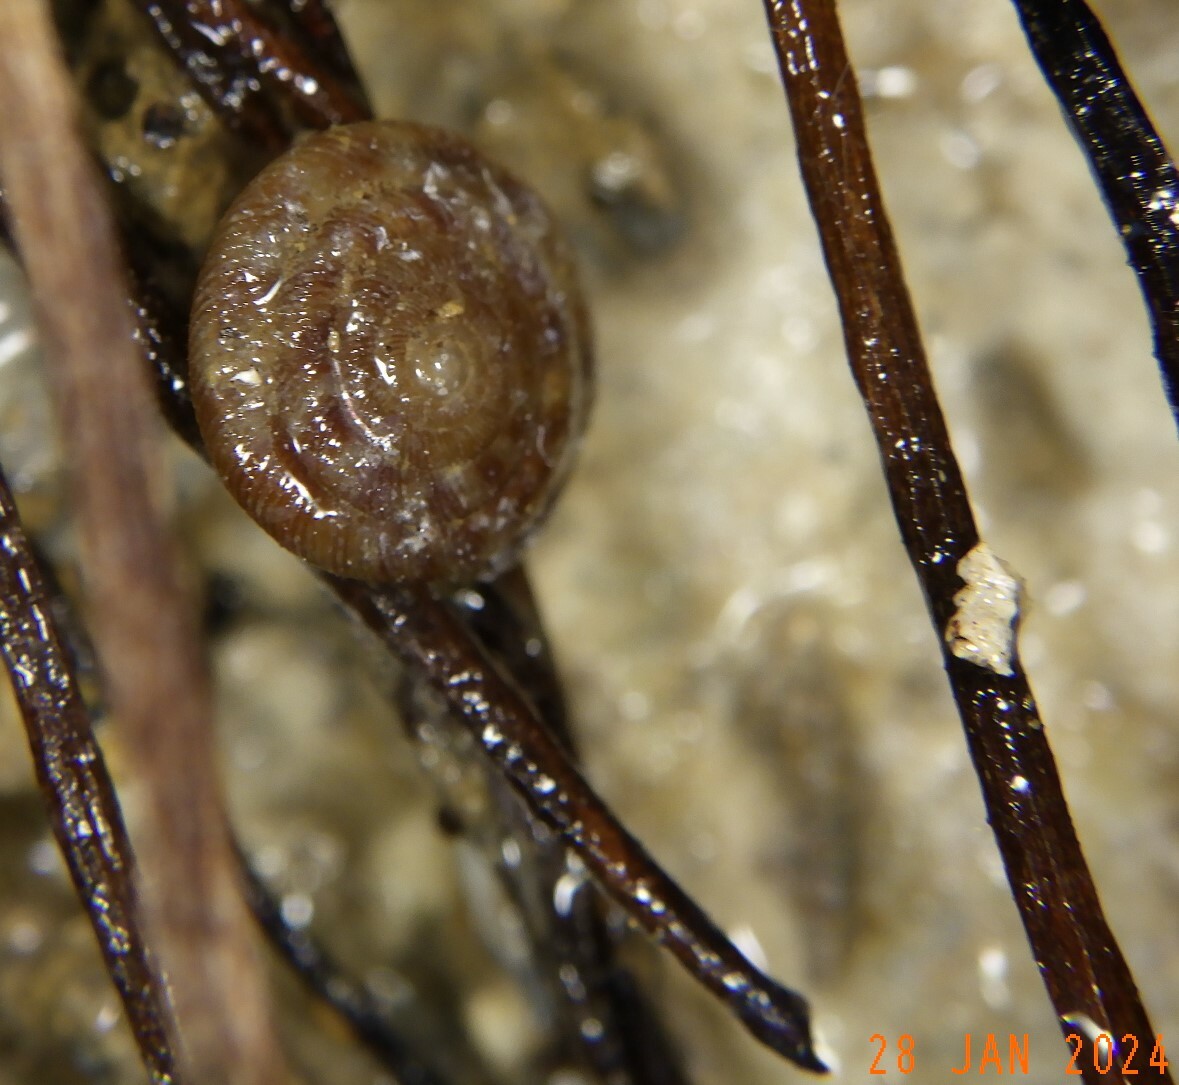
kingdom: Animalia
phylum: Mollusca
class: Gastropoda
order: Stylommatophora
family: Discidae
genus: Discus
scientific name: Discus rotundatus
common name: Rounded snail
